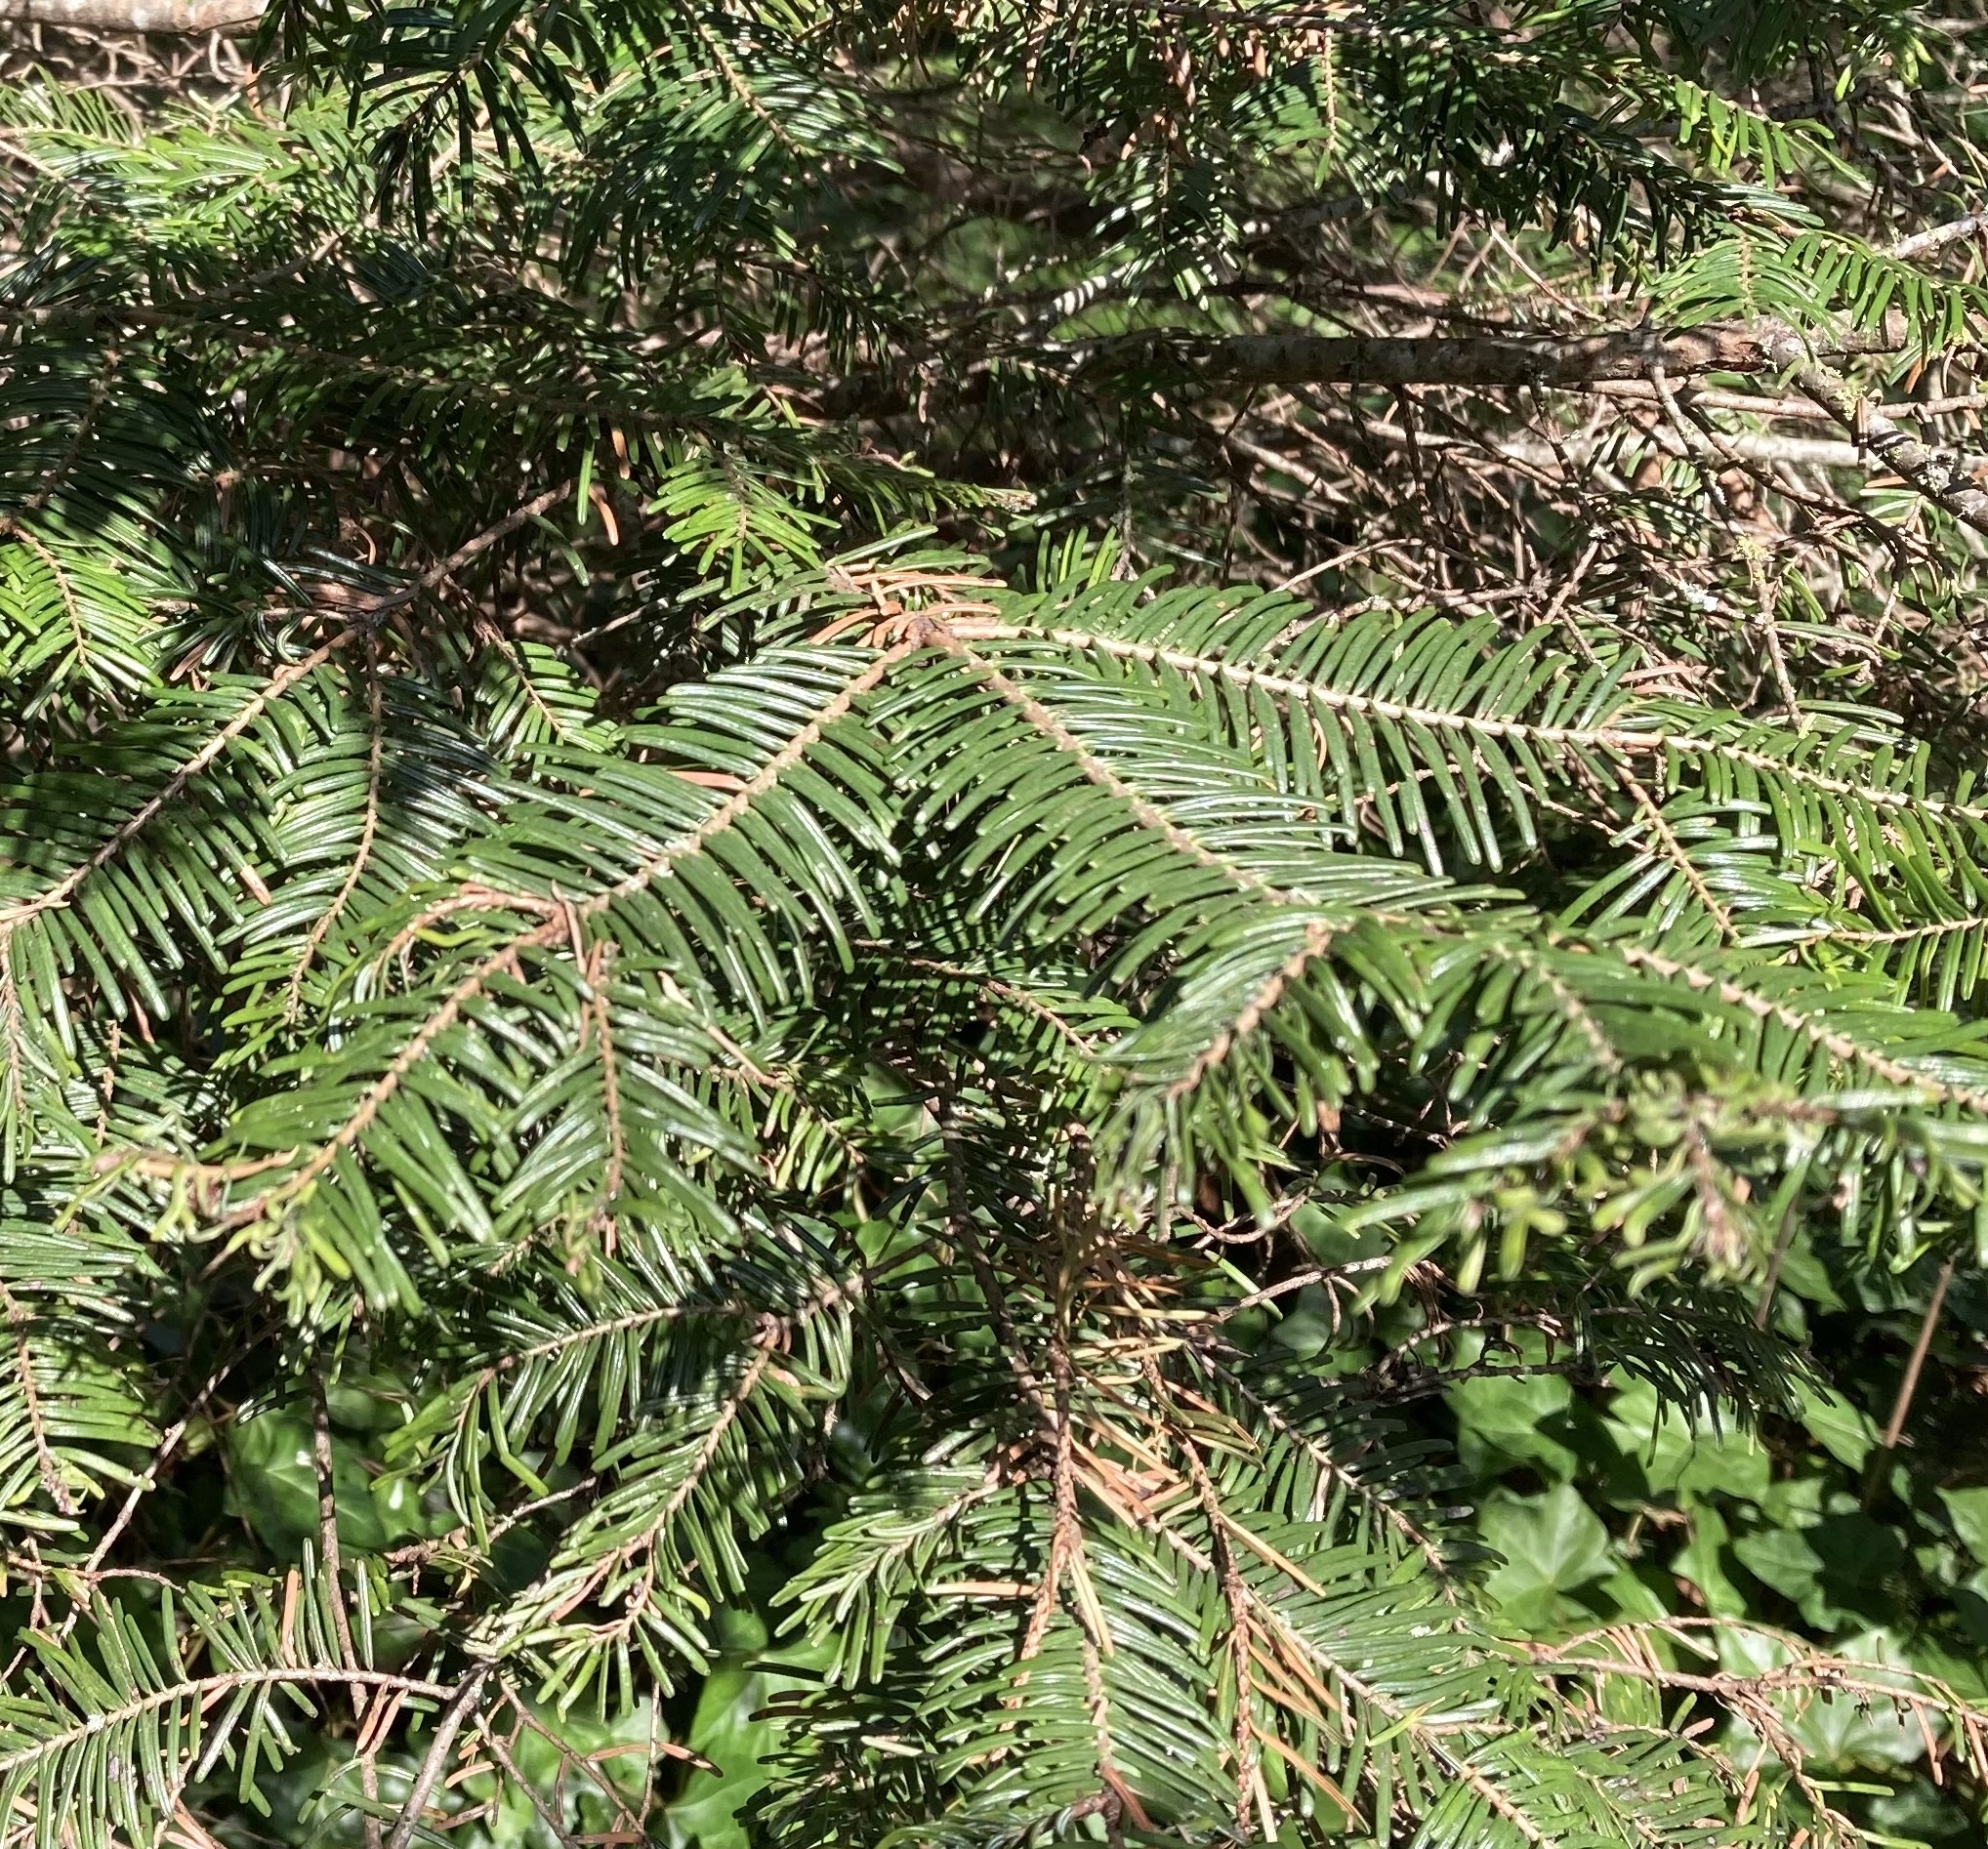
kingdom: Plantae
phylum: Tracheophyta
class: Pinopsida
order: Pinales
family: Pinaceae
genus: Abies
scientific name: Abies grandis
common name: Giant fir
